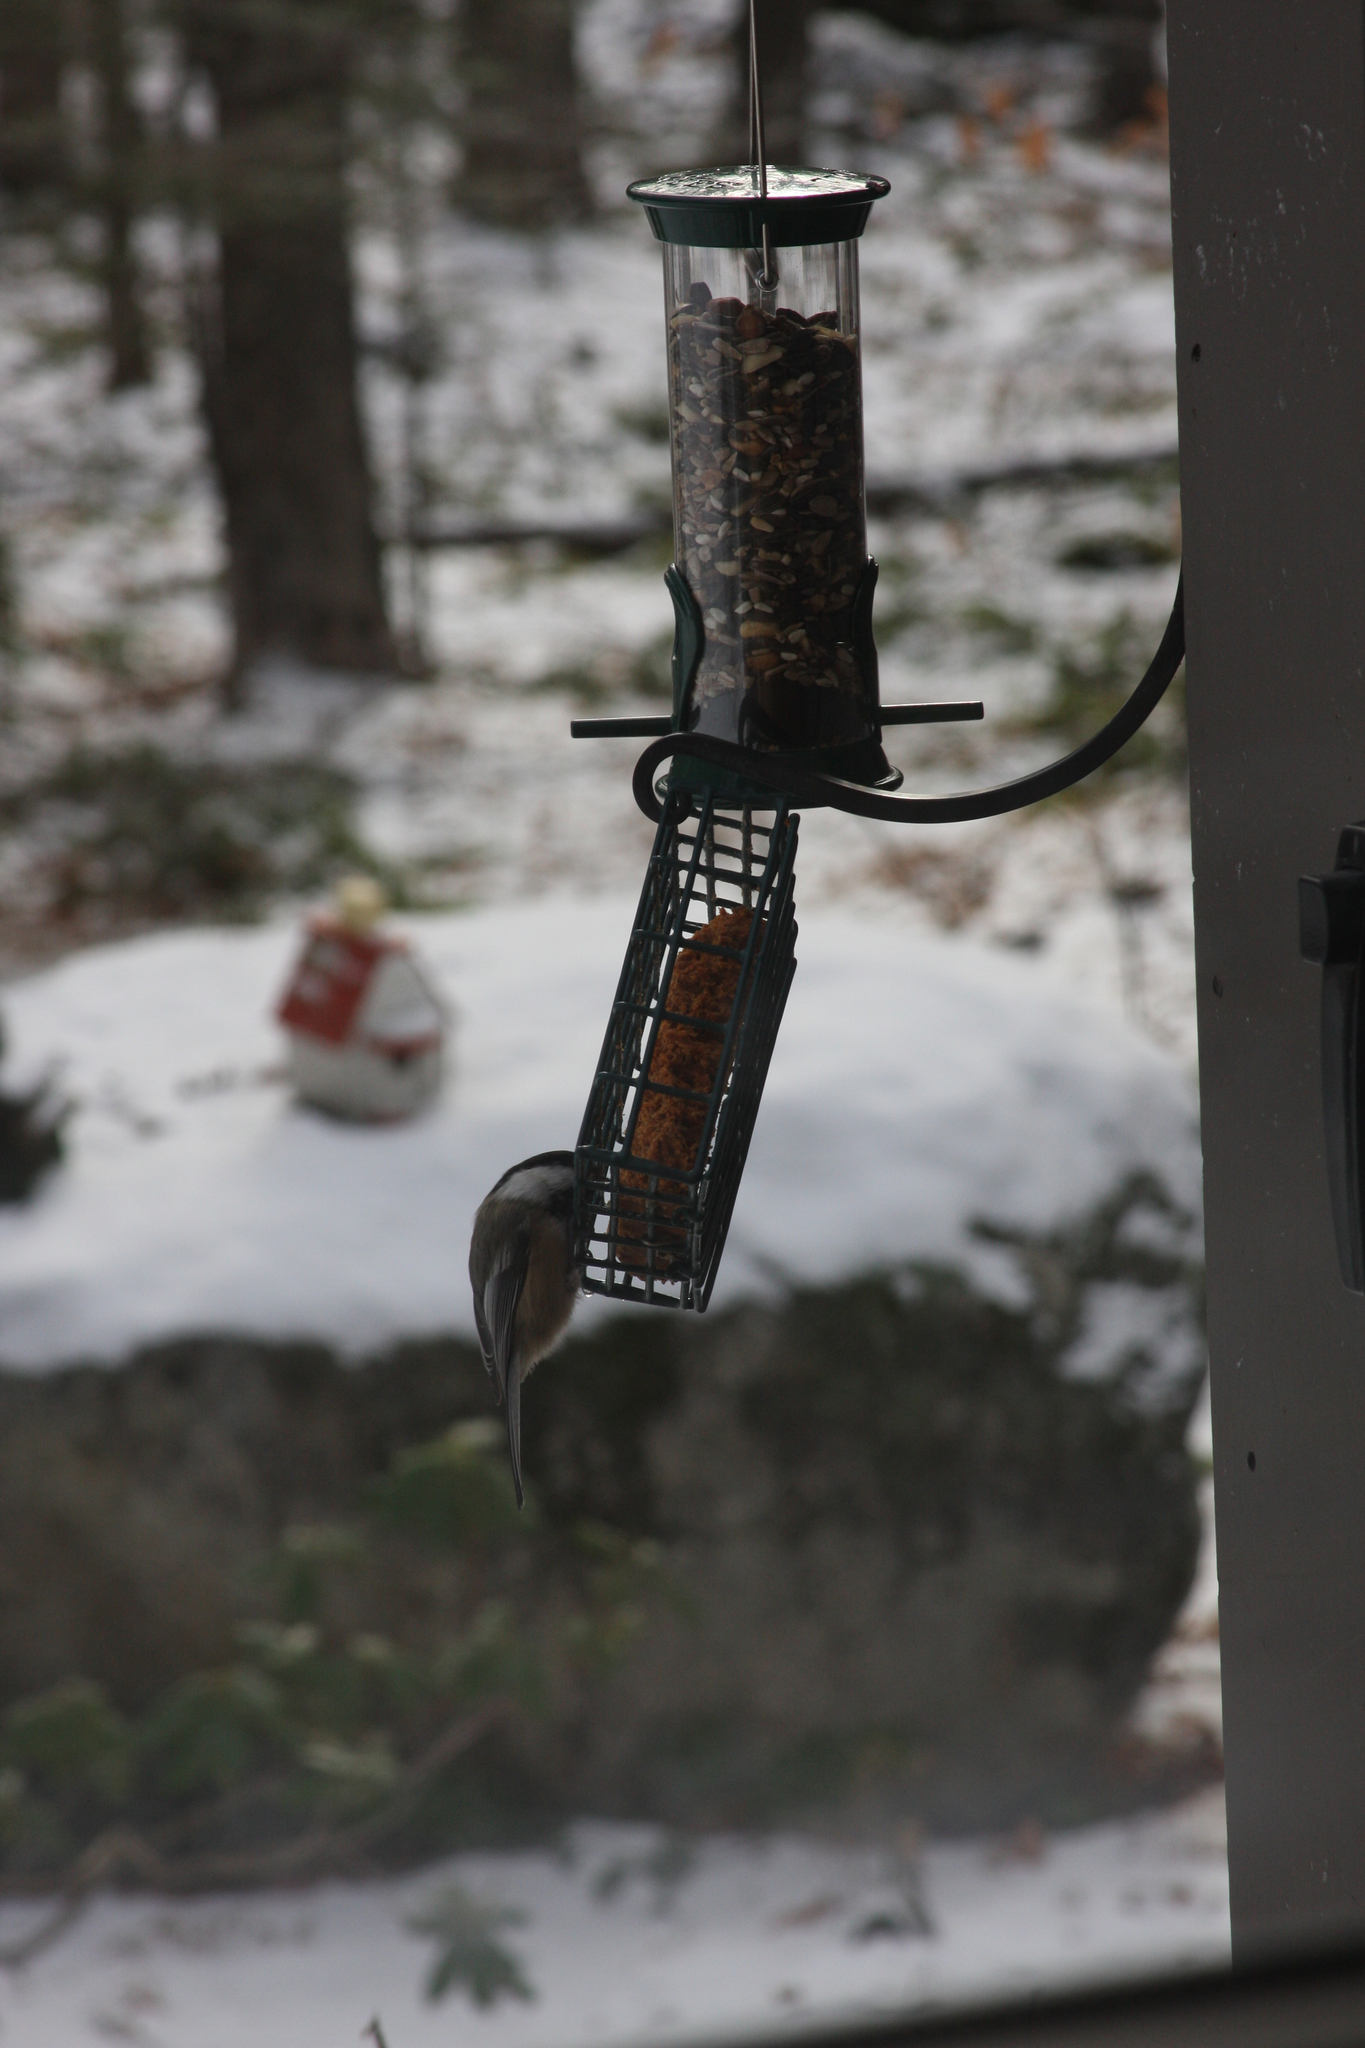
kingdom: Animalia
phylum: Chordata
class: Aves
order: Passeriformes
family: Paridae
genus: Poecile
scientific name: Poecile atricapillus
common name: Black-capped chickadee
